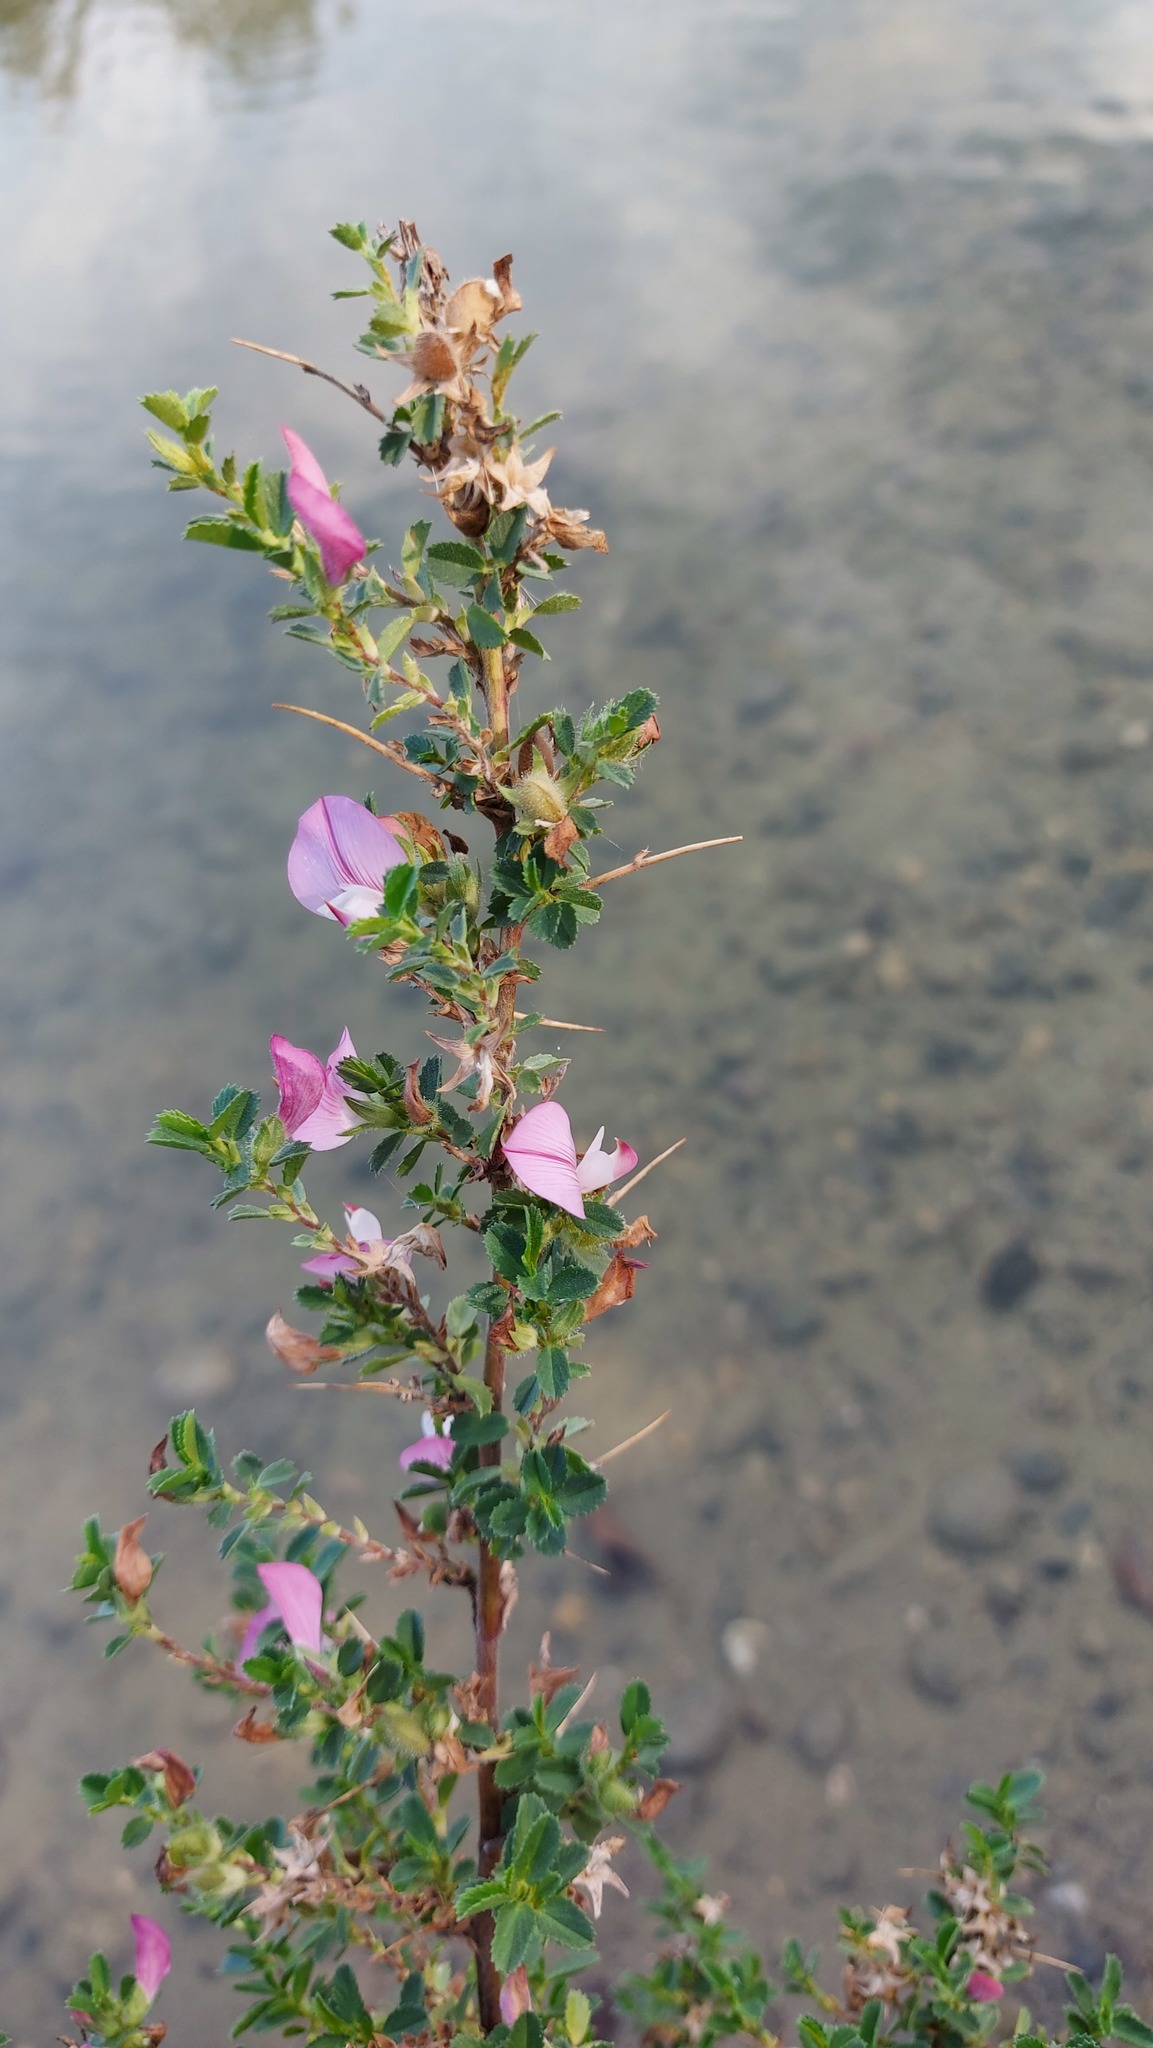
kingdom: Plantae
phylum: Tracheophyta
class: Magnoliopsida
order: Fabales
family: Fabaceae
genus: Ononis
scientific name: Ononis spinosa
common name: Spiny restharrow
